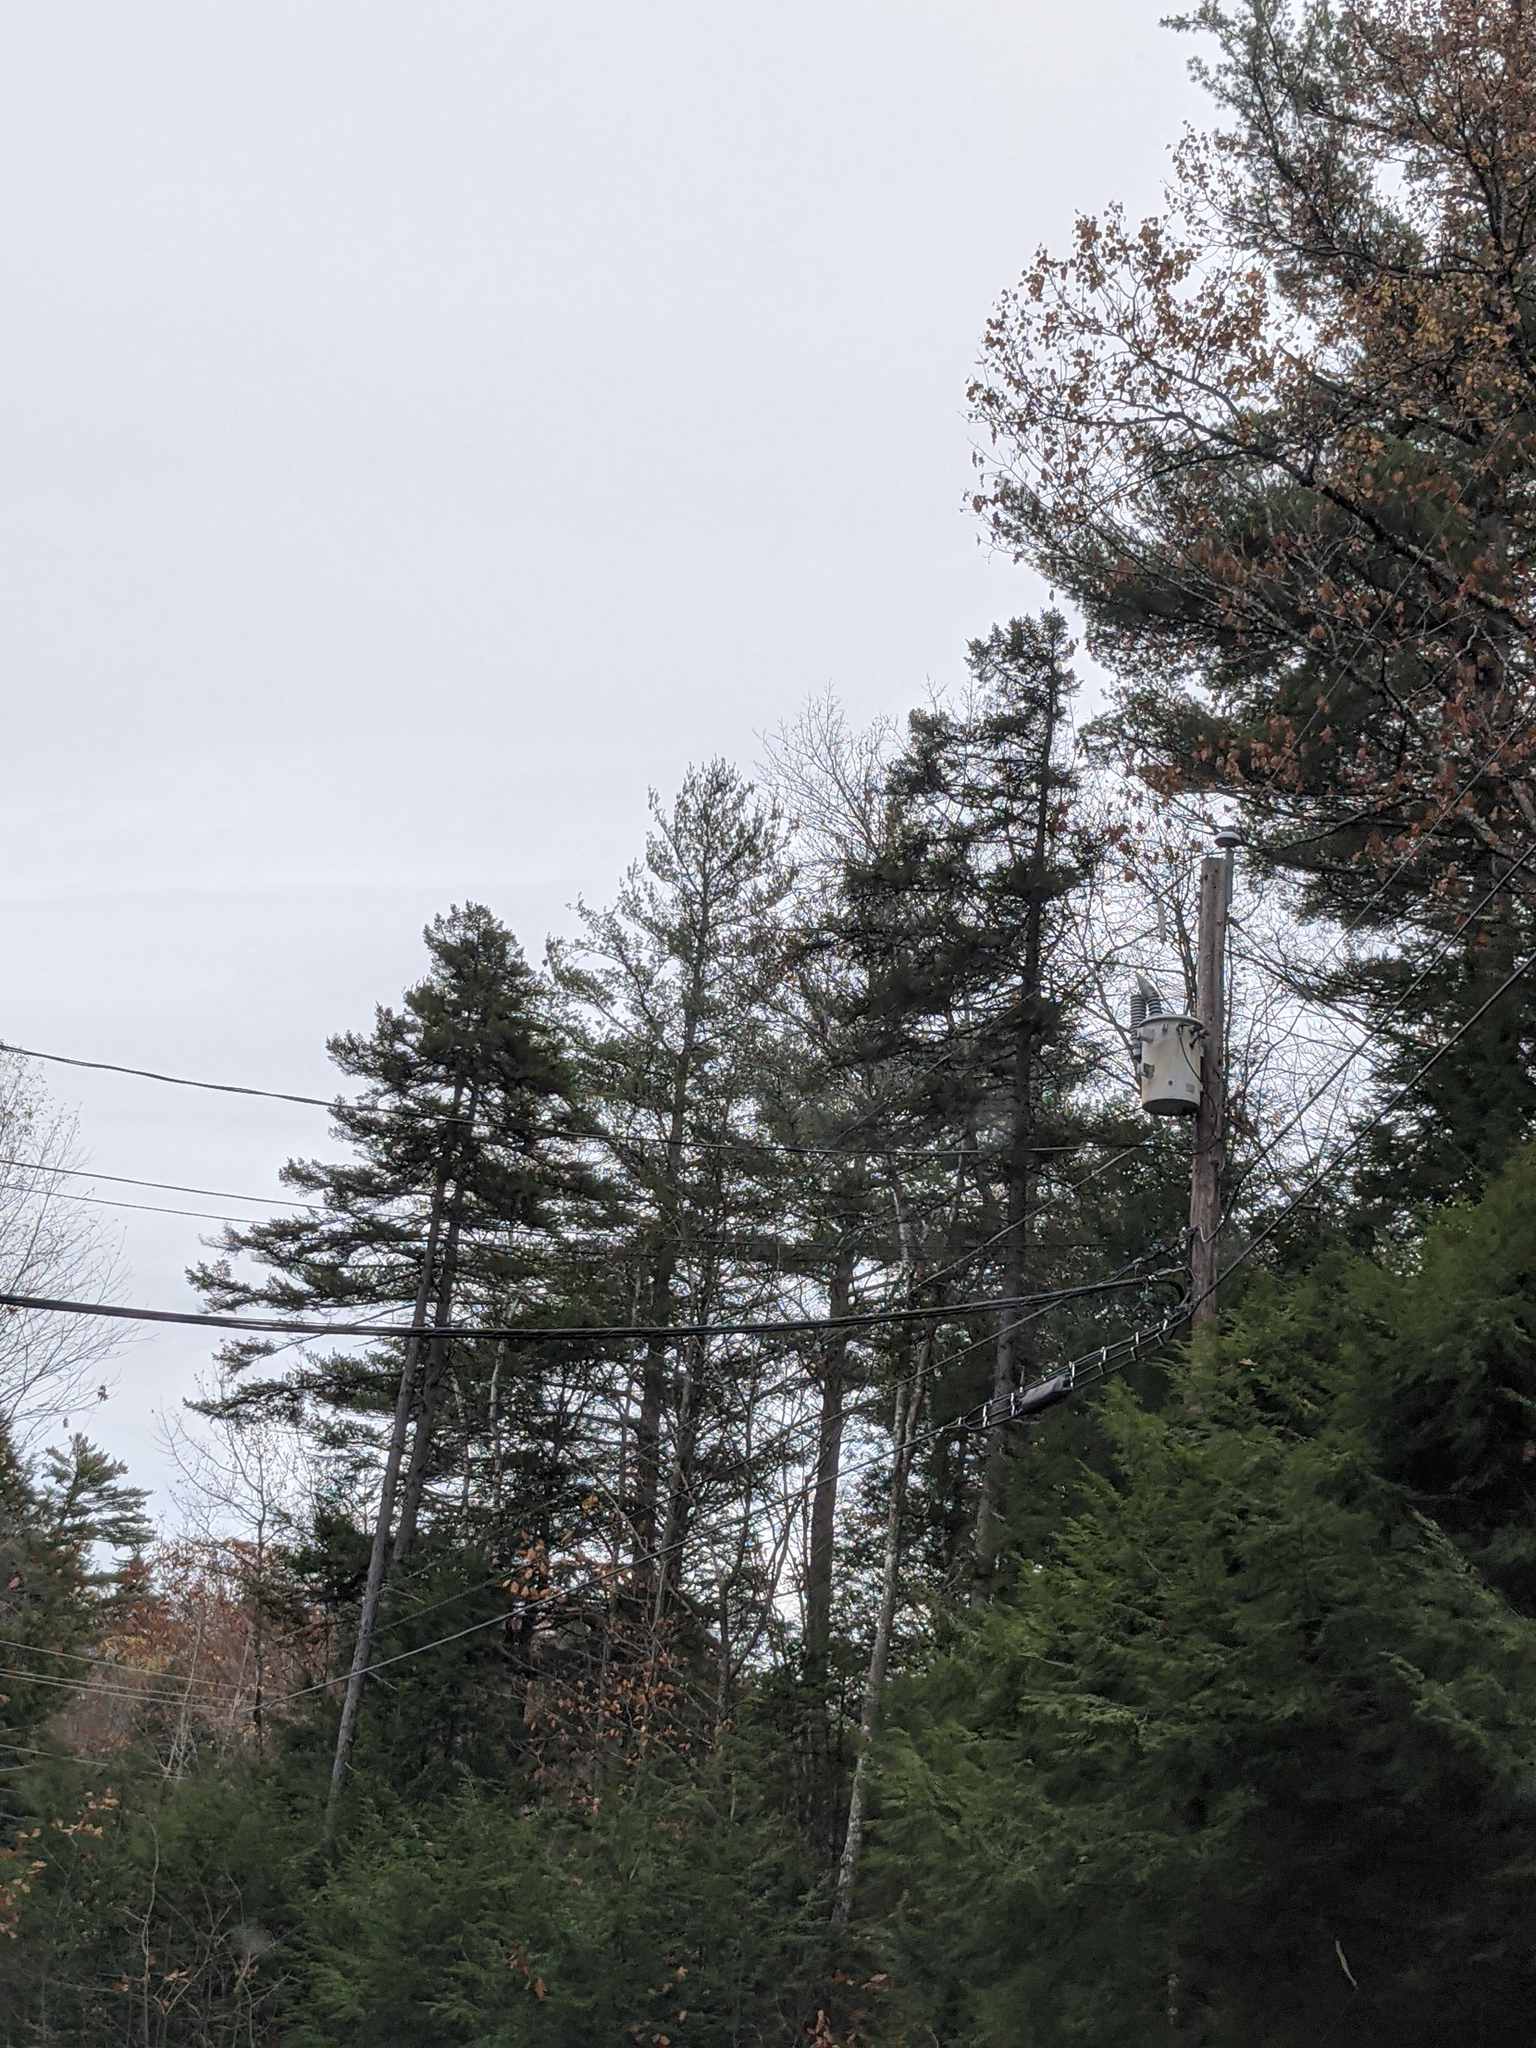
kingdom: Plantae
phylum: Tracheophyta
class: Pinopsida
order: Pinales
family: Pinaceae
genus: Pinus
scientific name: Pinus strobus
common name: Weymouth pine
